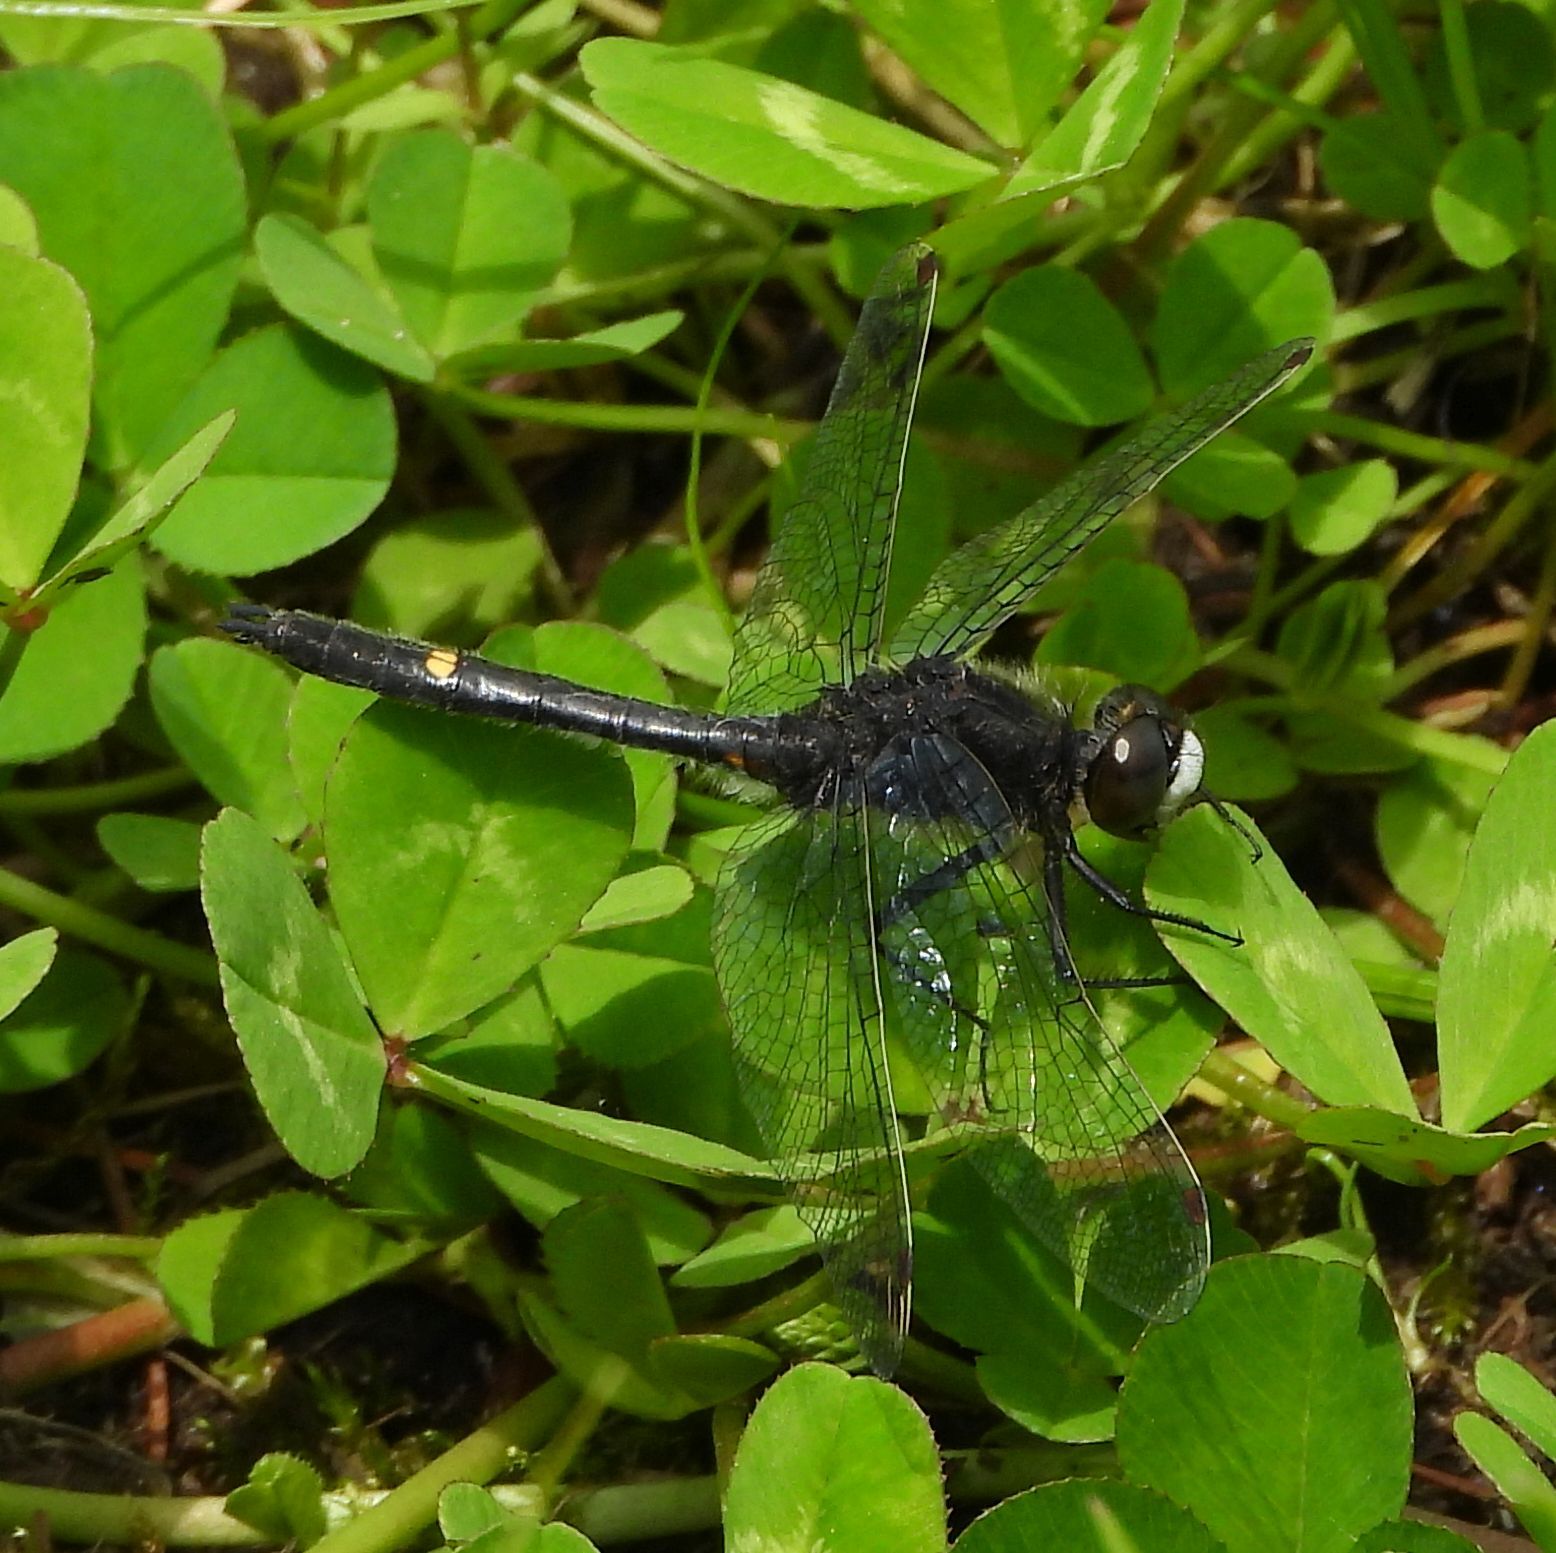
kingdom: Animalia
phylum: Arthropoda
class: Insecta
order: Odonata
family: Libellulidae
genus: Leucorrhinia
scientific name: Leucorrhinia intacta
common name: Dot-tailed whiteface
